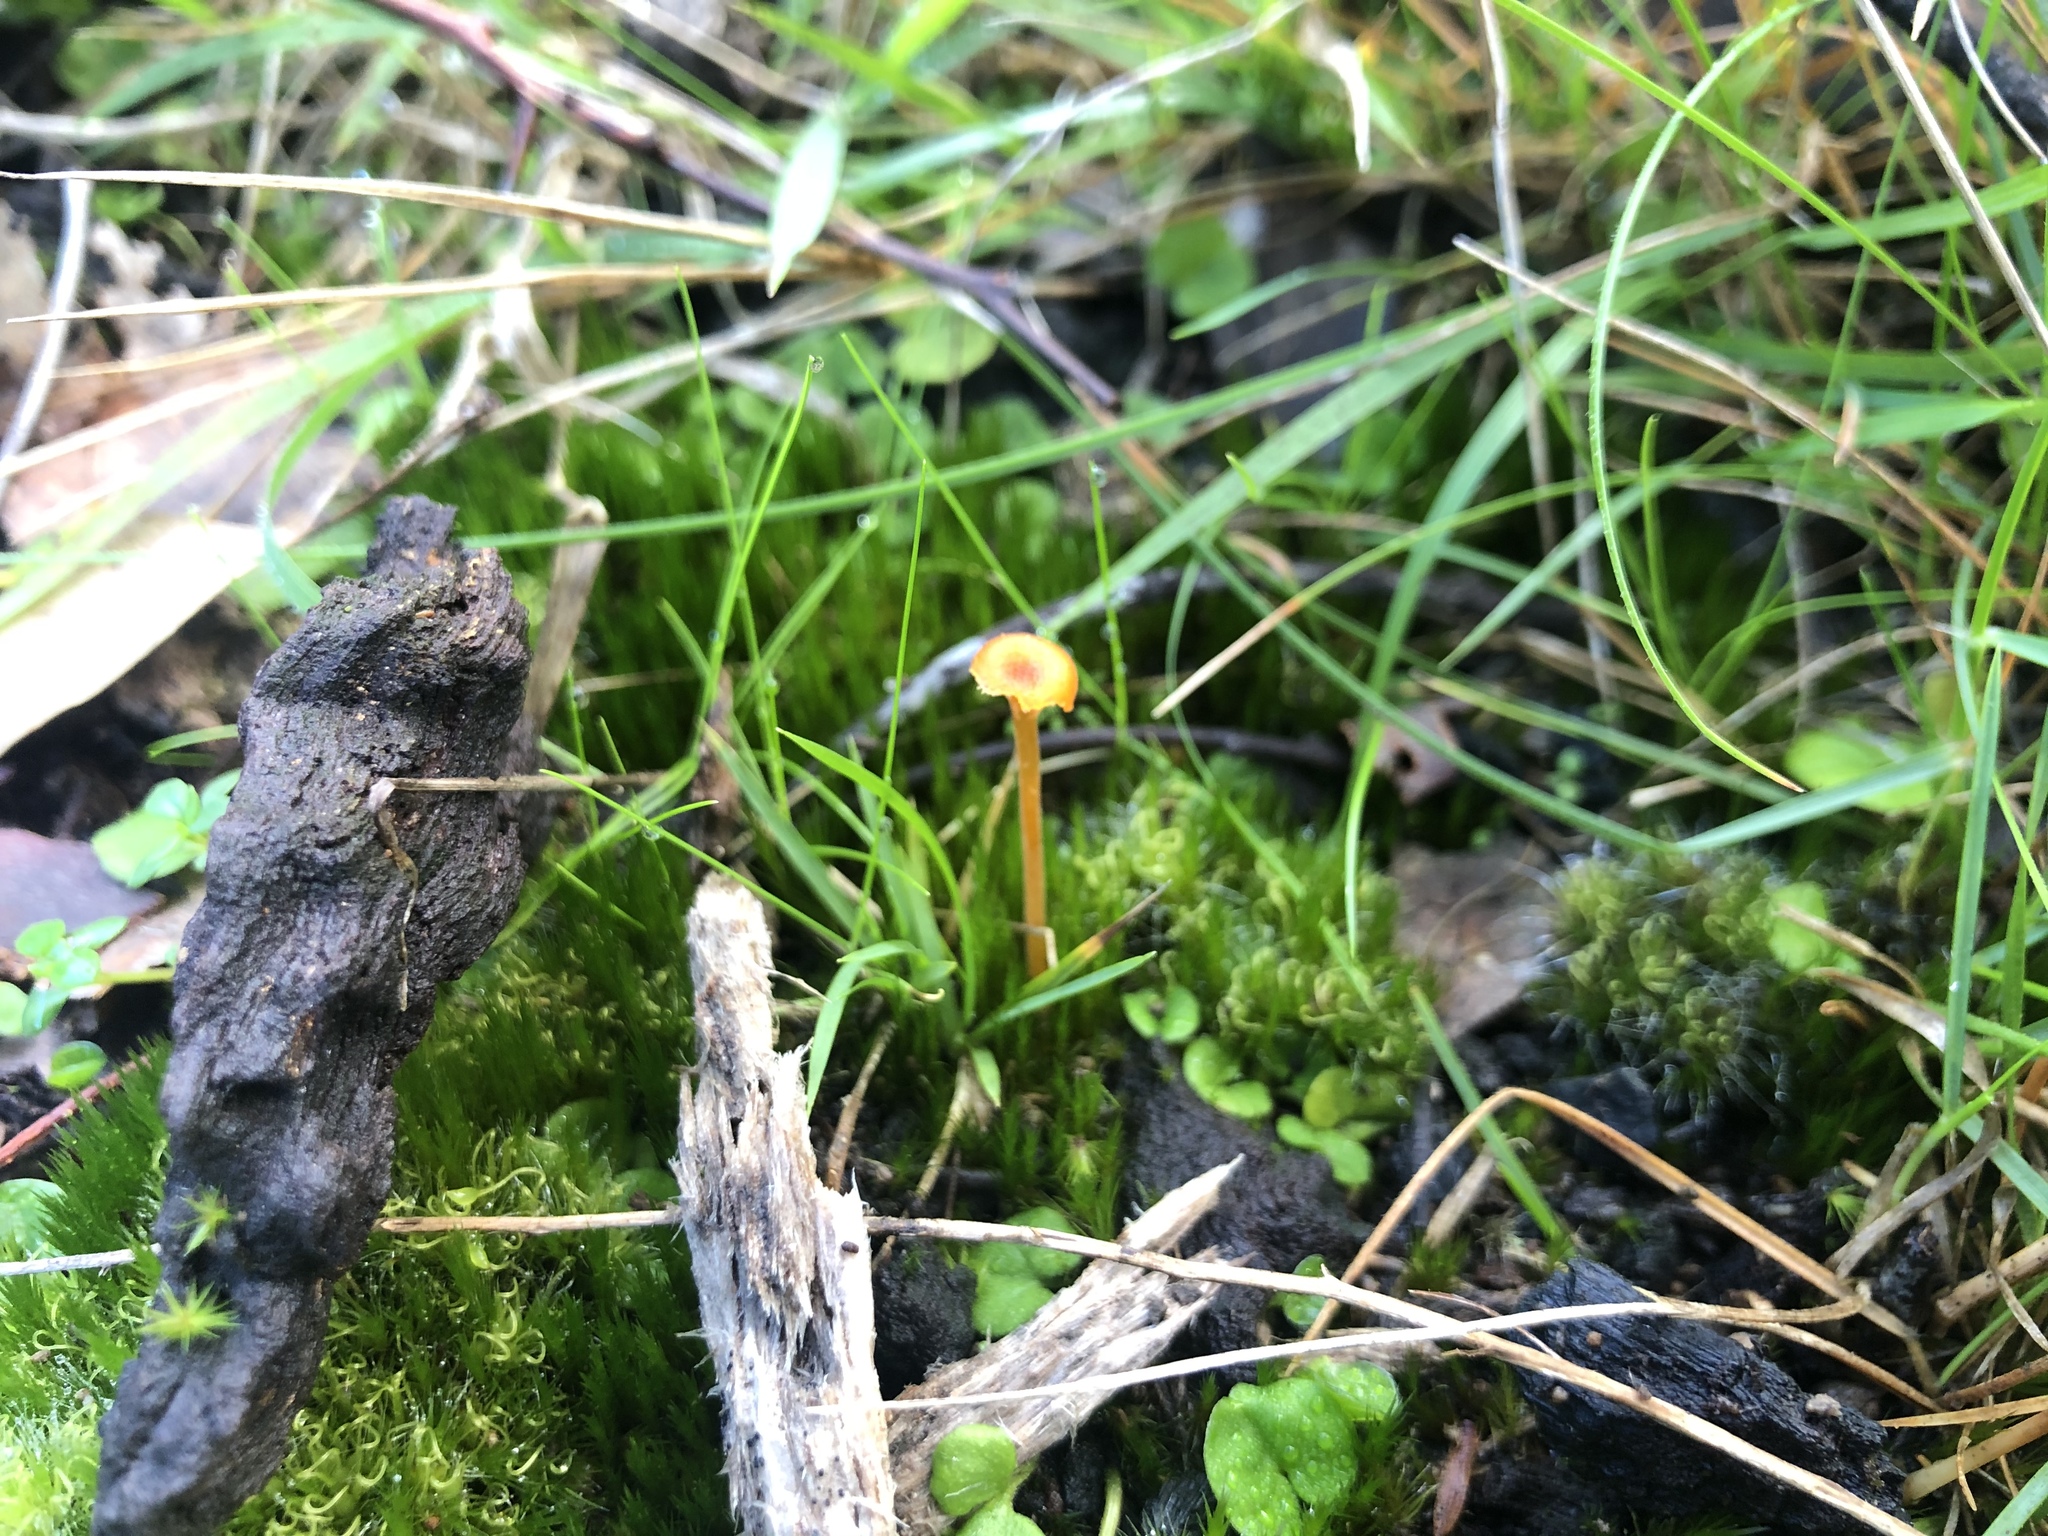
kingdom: Fungi
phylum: Basidiomycota
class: Agaricomycetes
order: Hymenochaetales
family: Rickenellaceae
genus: Rickenella
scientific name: Rickenella fibula
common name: Orange mosscap
